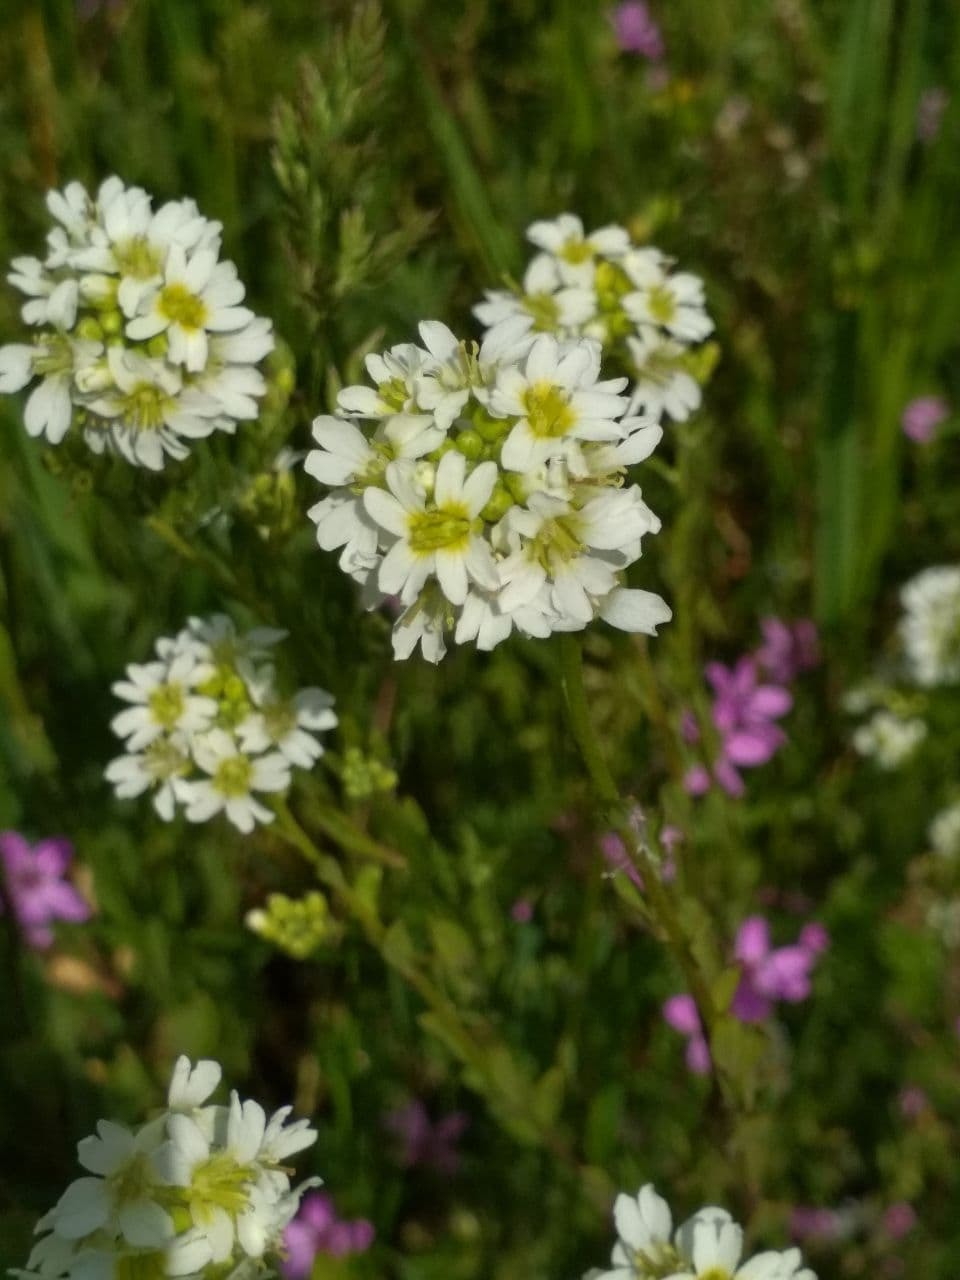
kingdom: Plantae
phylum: Tracheophyta
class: Magnoliopsida
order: Brassicales
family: Brassicaceae
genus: Berteroa
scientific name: Berteroa incana
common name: Hoary alison
